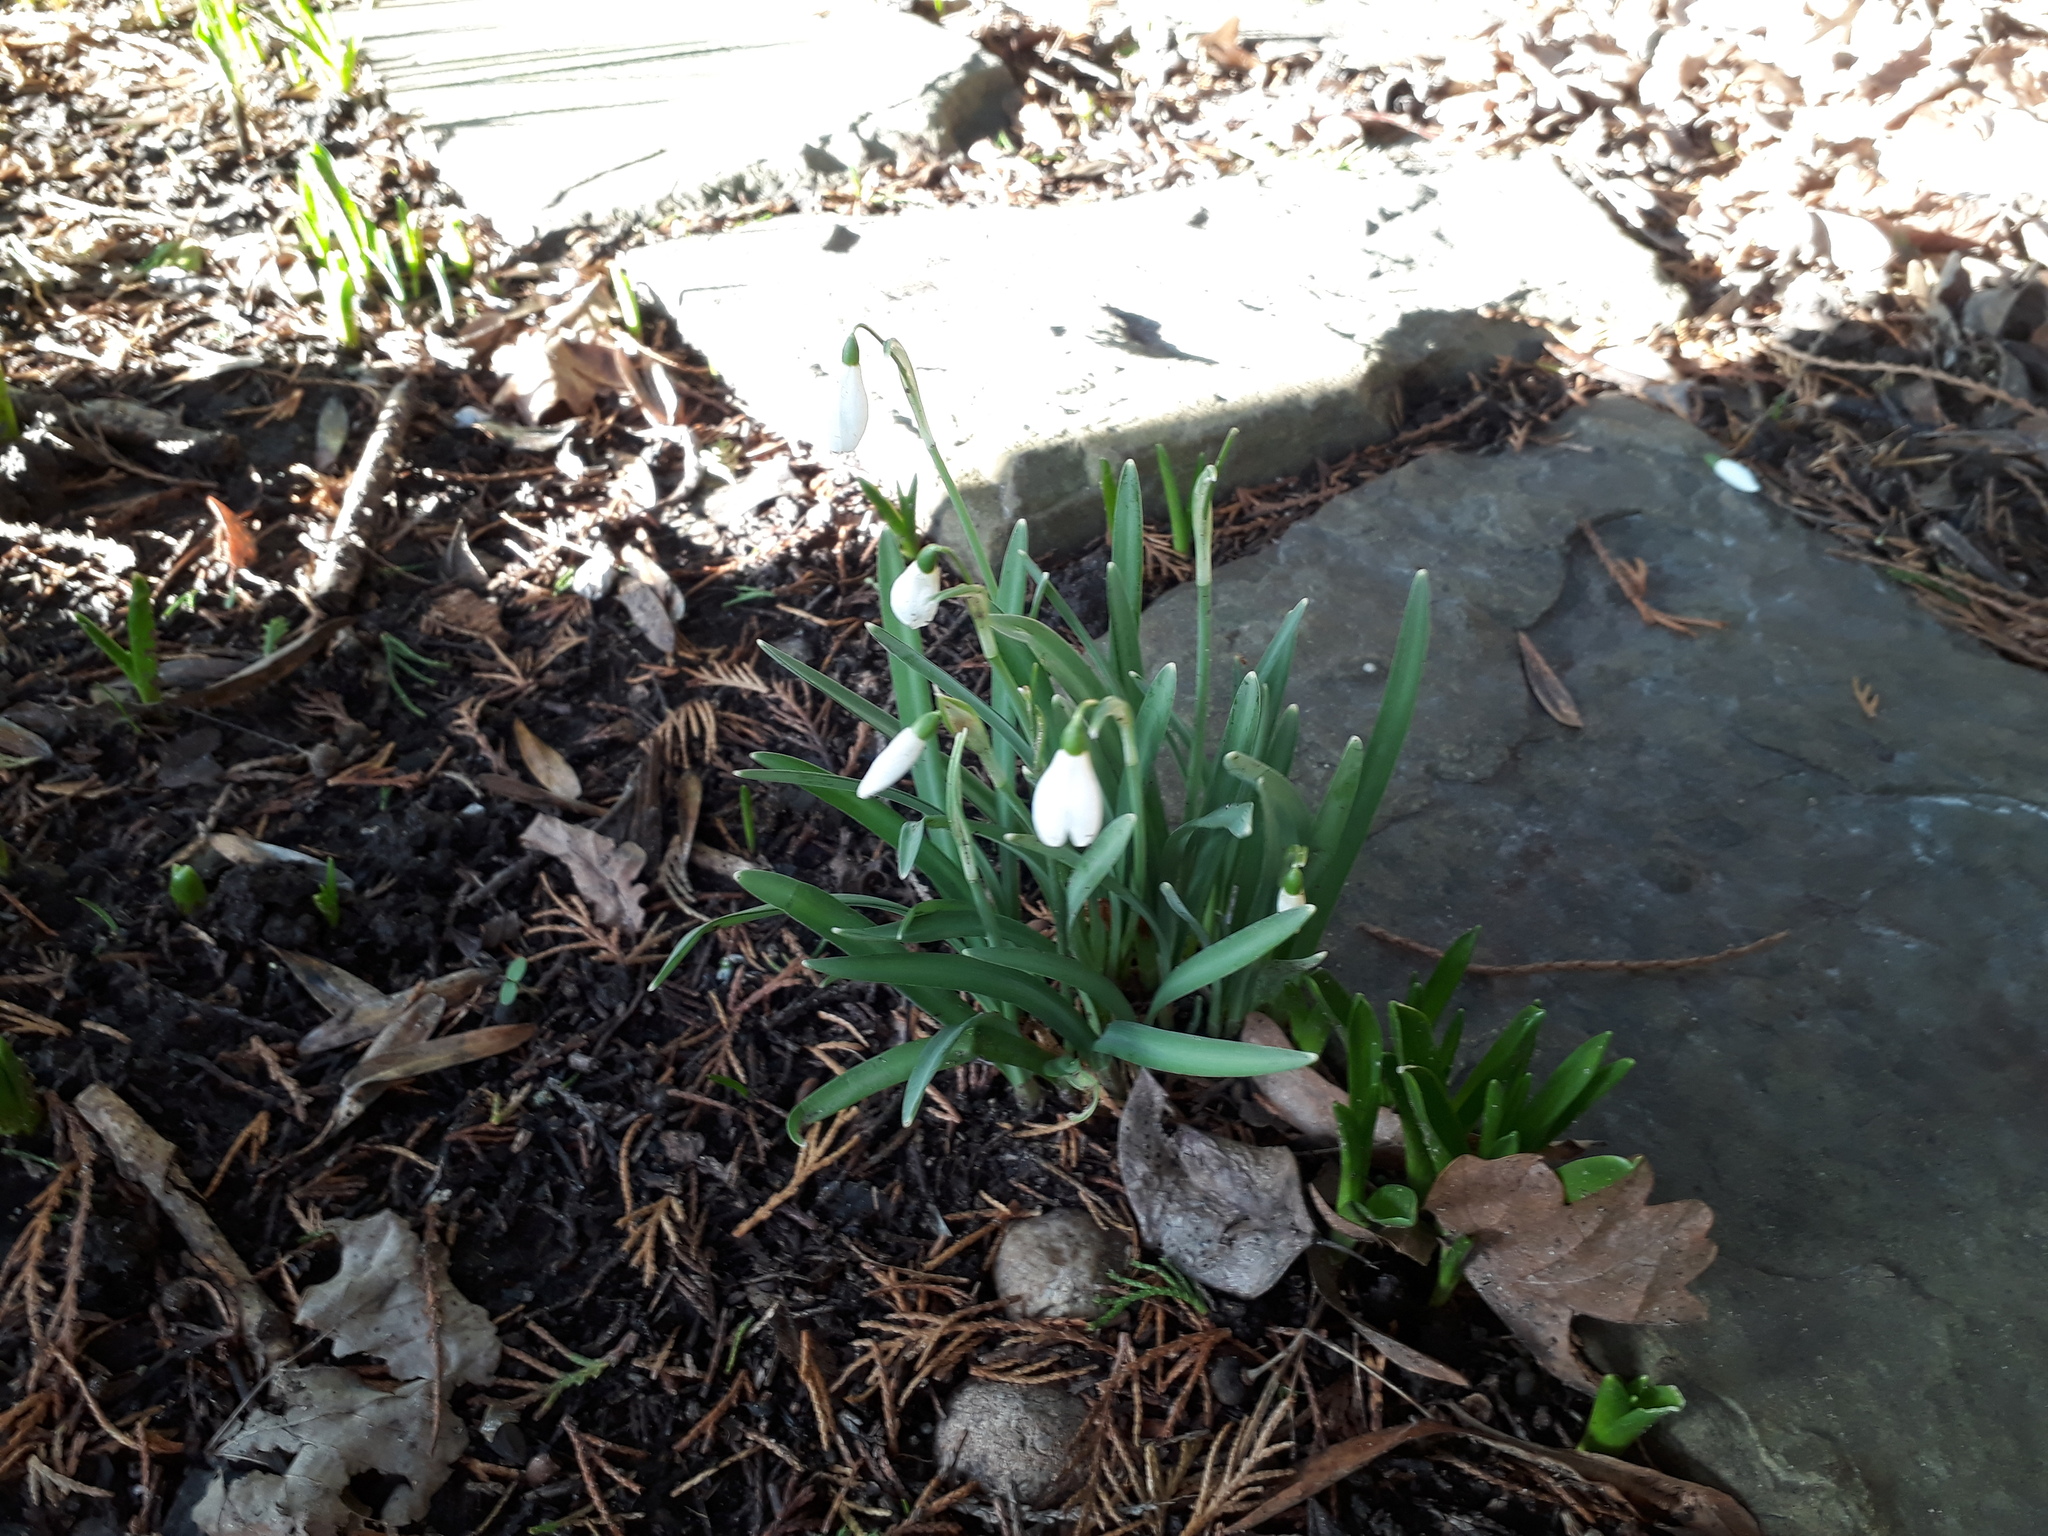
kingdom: Plantae
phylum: Tracheophyta
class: Liliopsida
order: Asparagales
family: Amaryllidaceae
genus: Galanthus
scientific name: Galanthus nivalis
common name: Snowdrop
